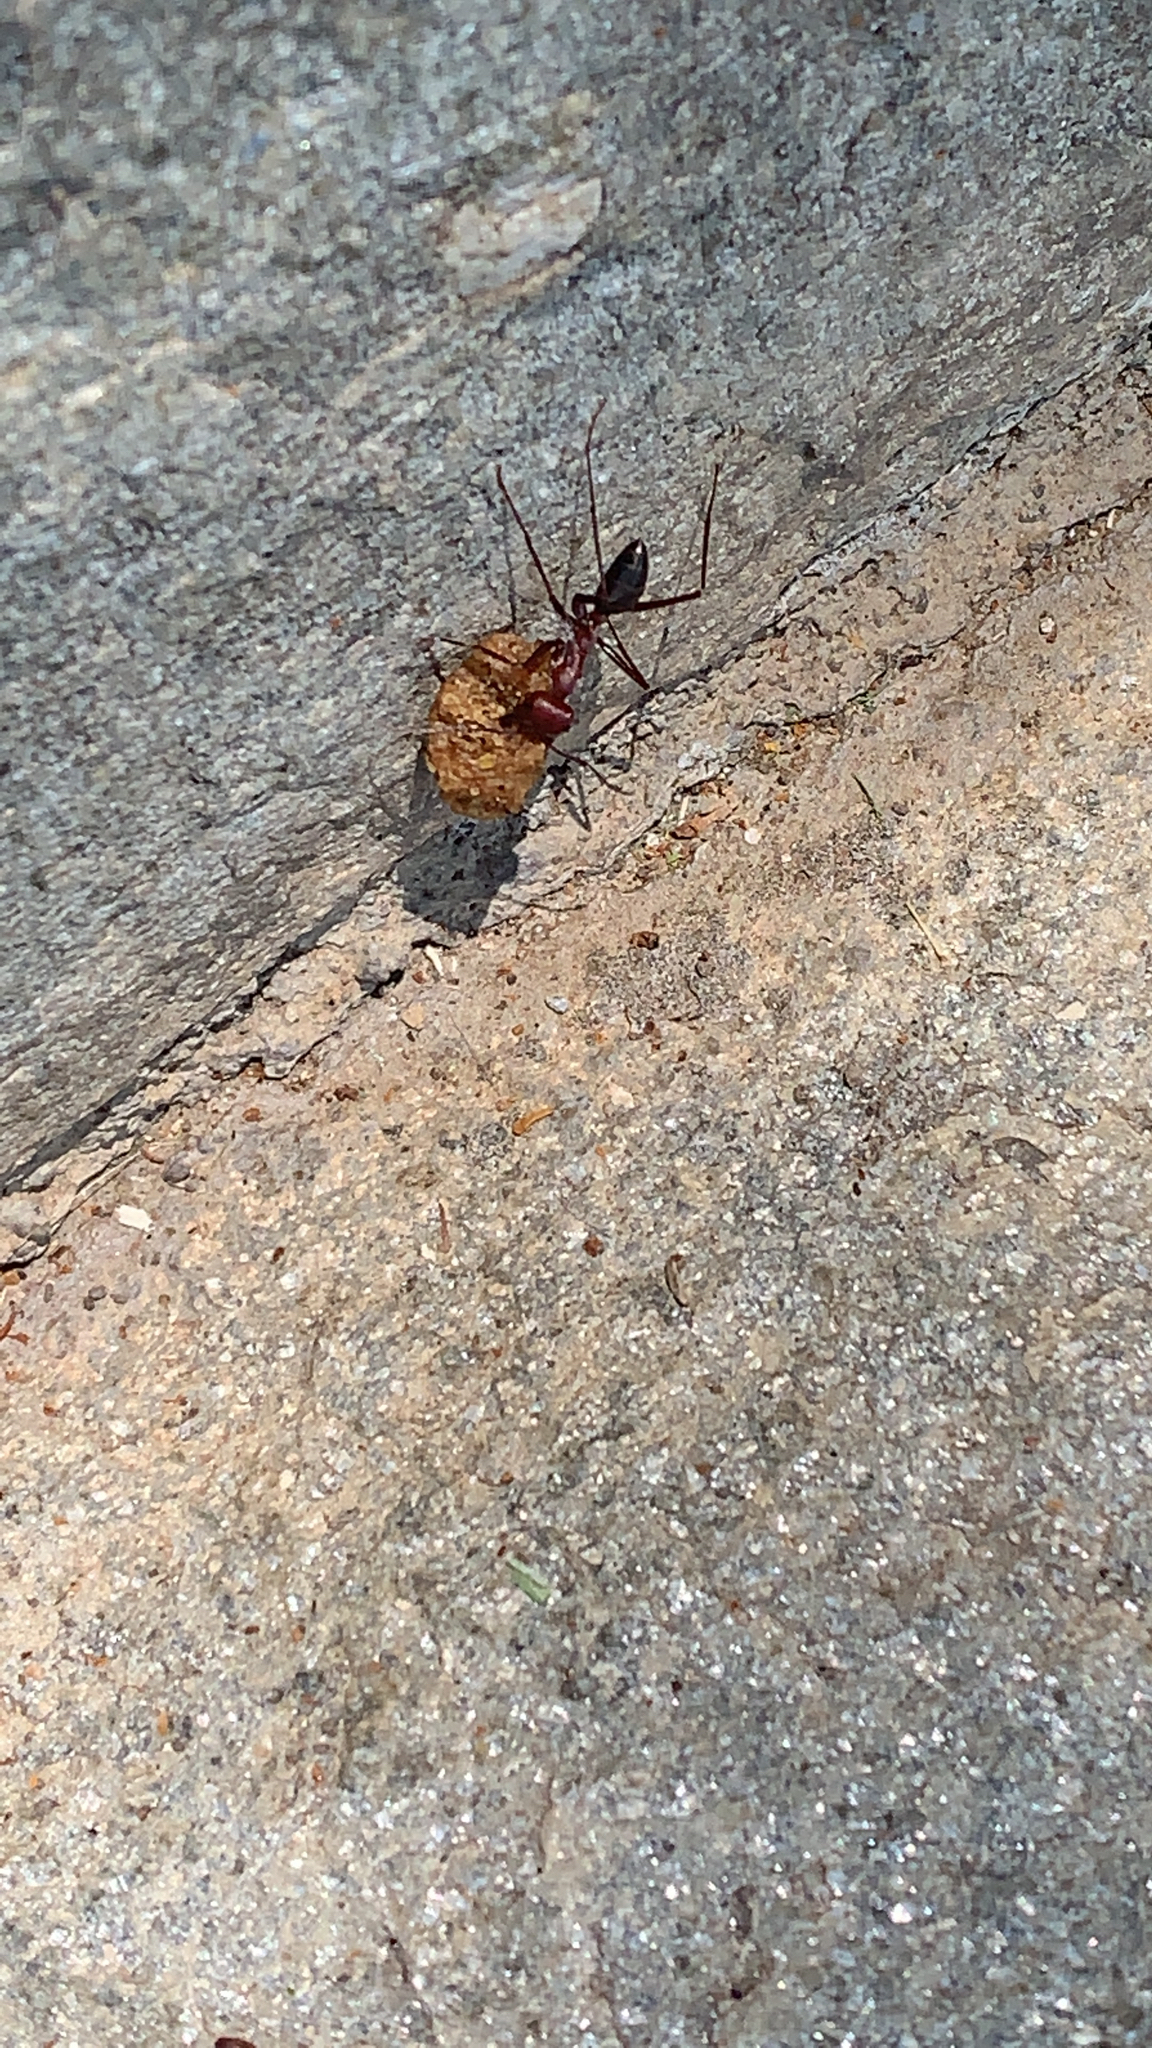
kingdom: Animalia
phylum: Arthropoda
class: Insecta
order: Hymenoptera
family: Formicidae
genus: Cataglyphis
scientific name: Cataglyphis nodus
